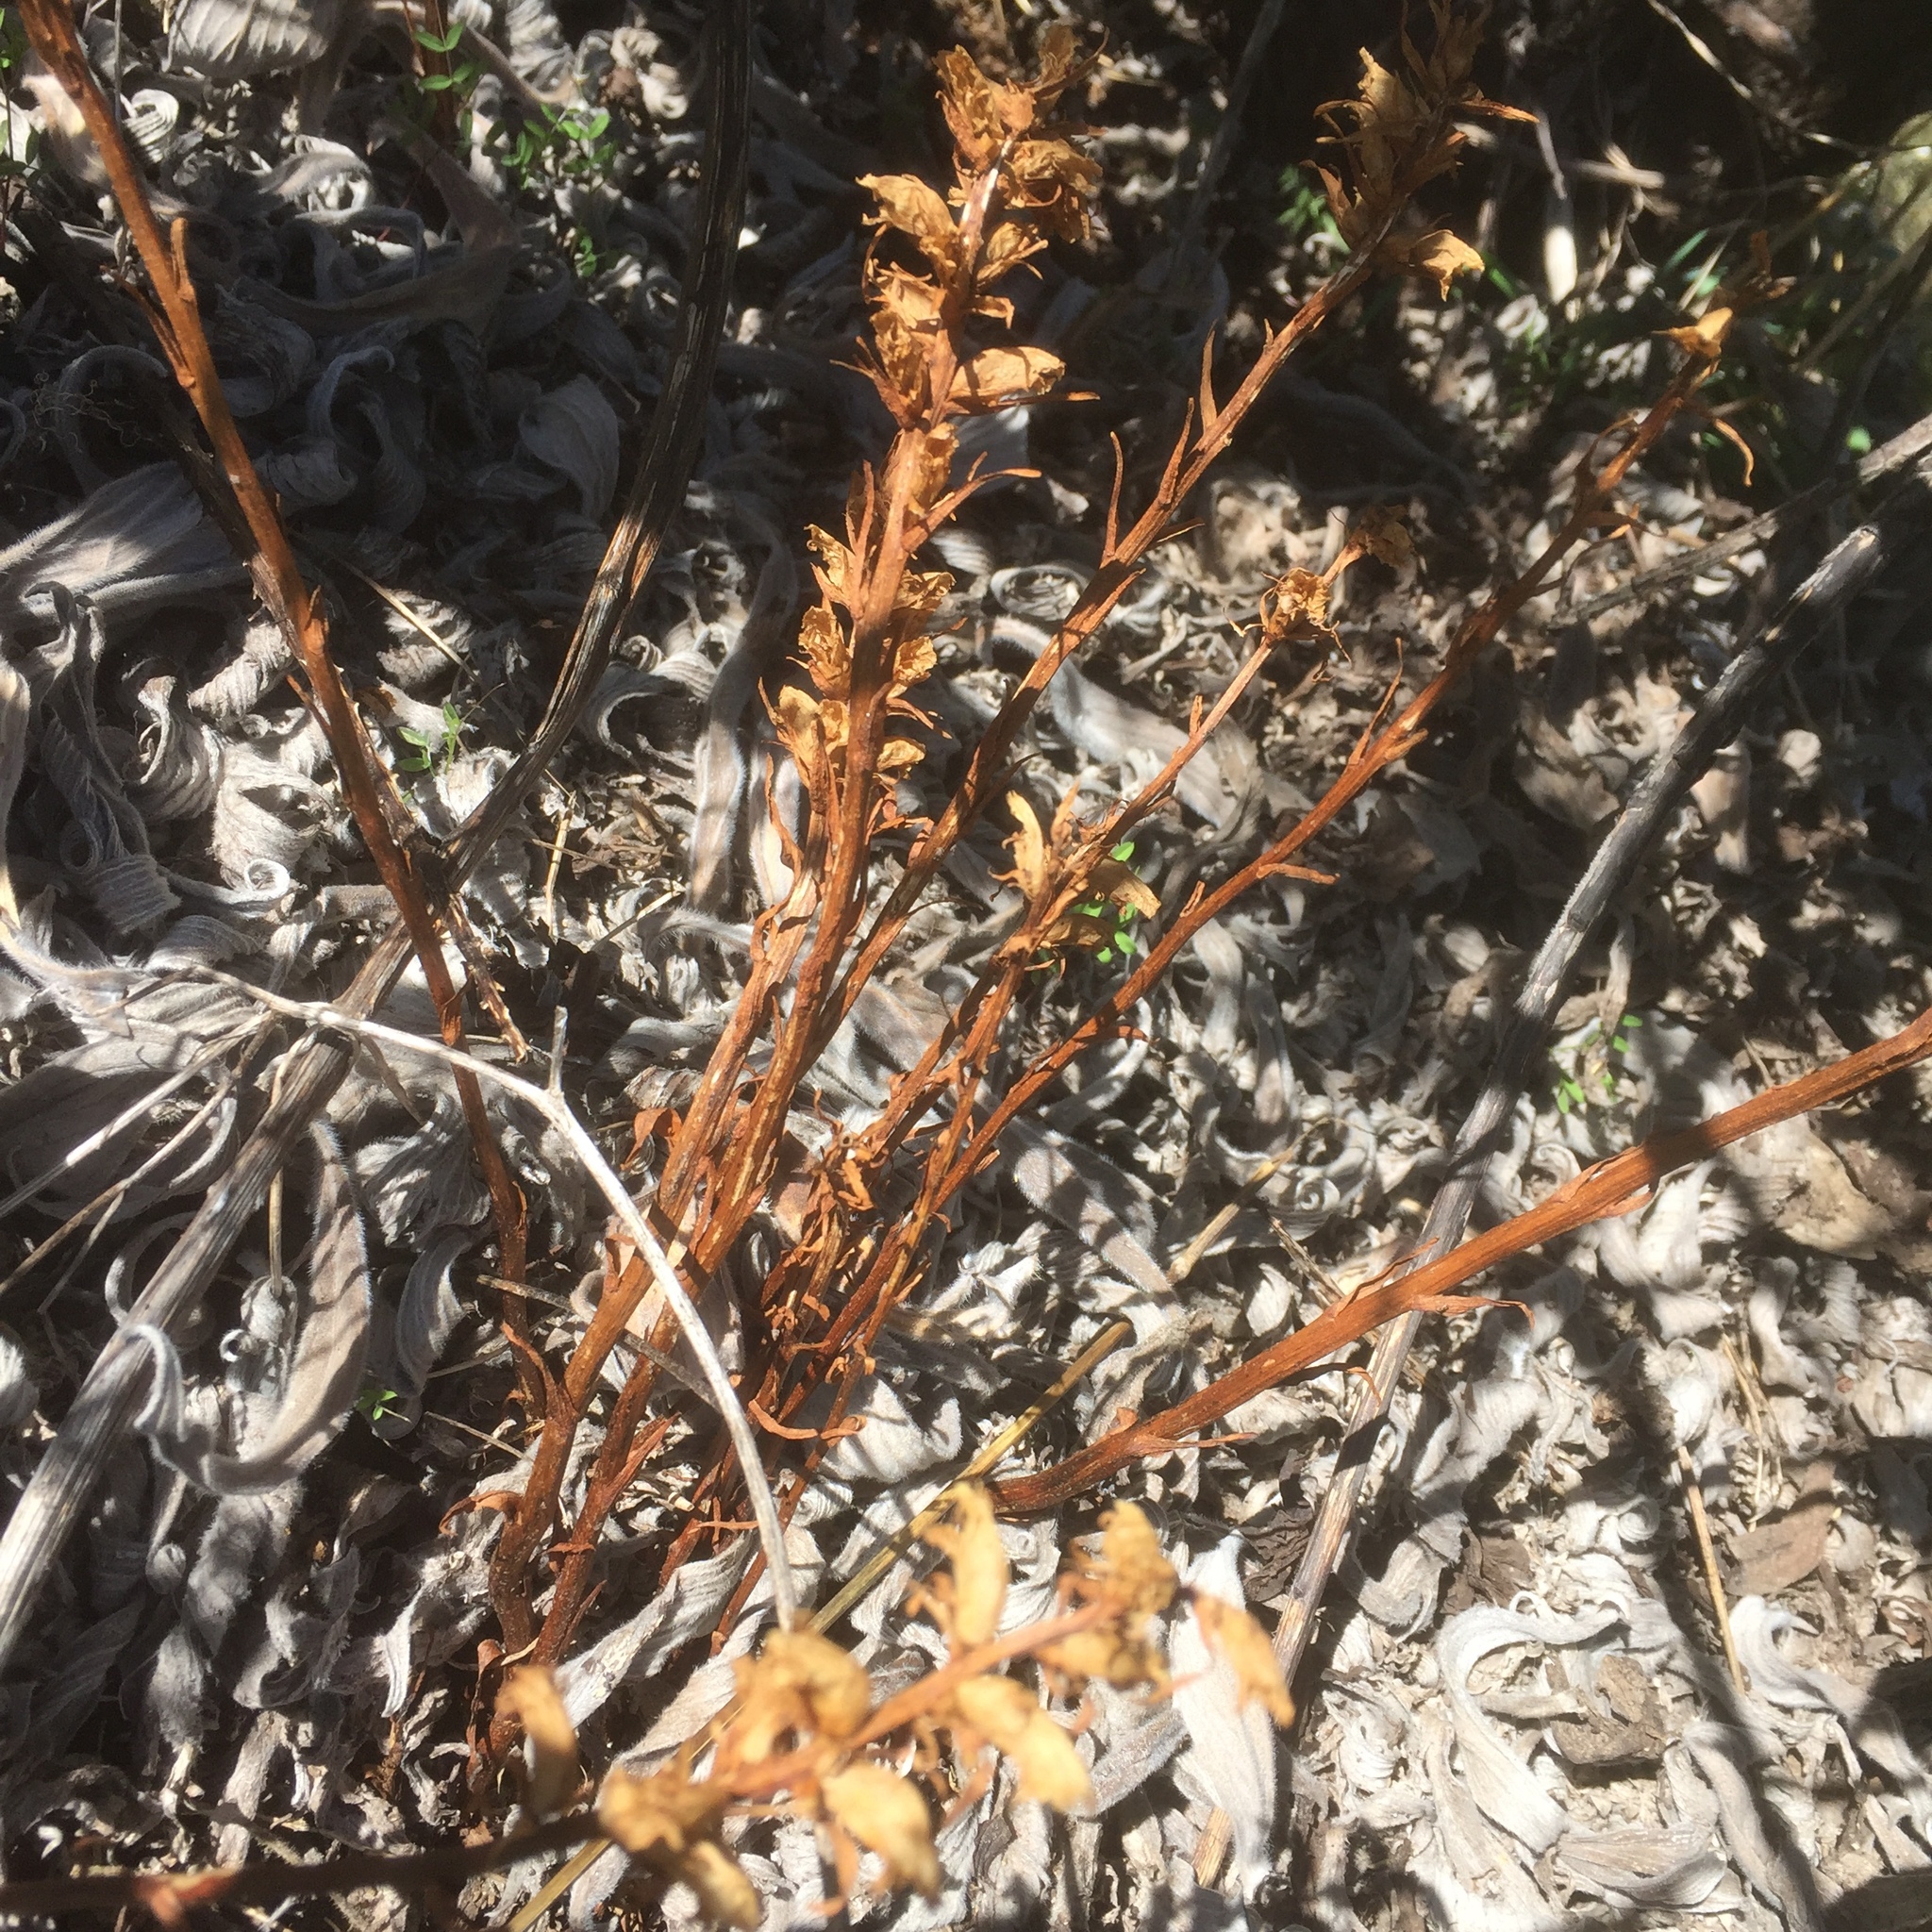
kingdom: Plantae
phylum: Tracheophyta
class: Magnoliopsida
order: Lamiales
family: Orobanchaceae
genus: Orobanche
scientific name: Orobanche minor
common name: Common broomrape
